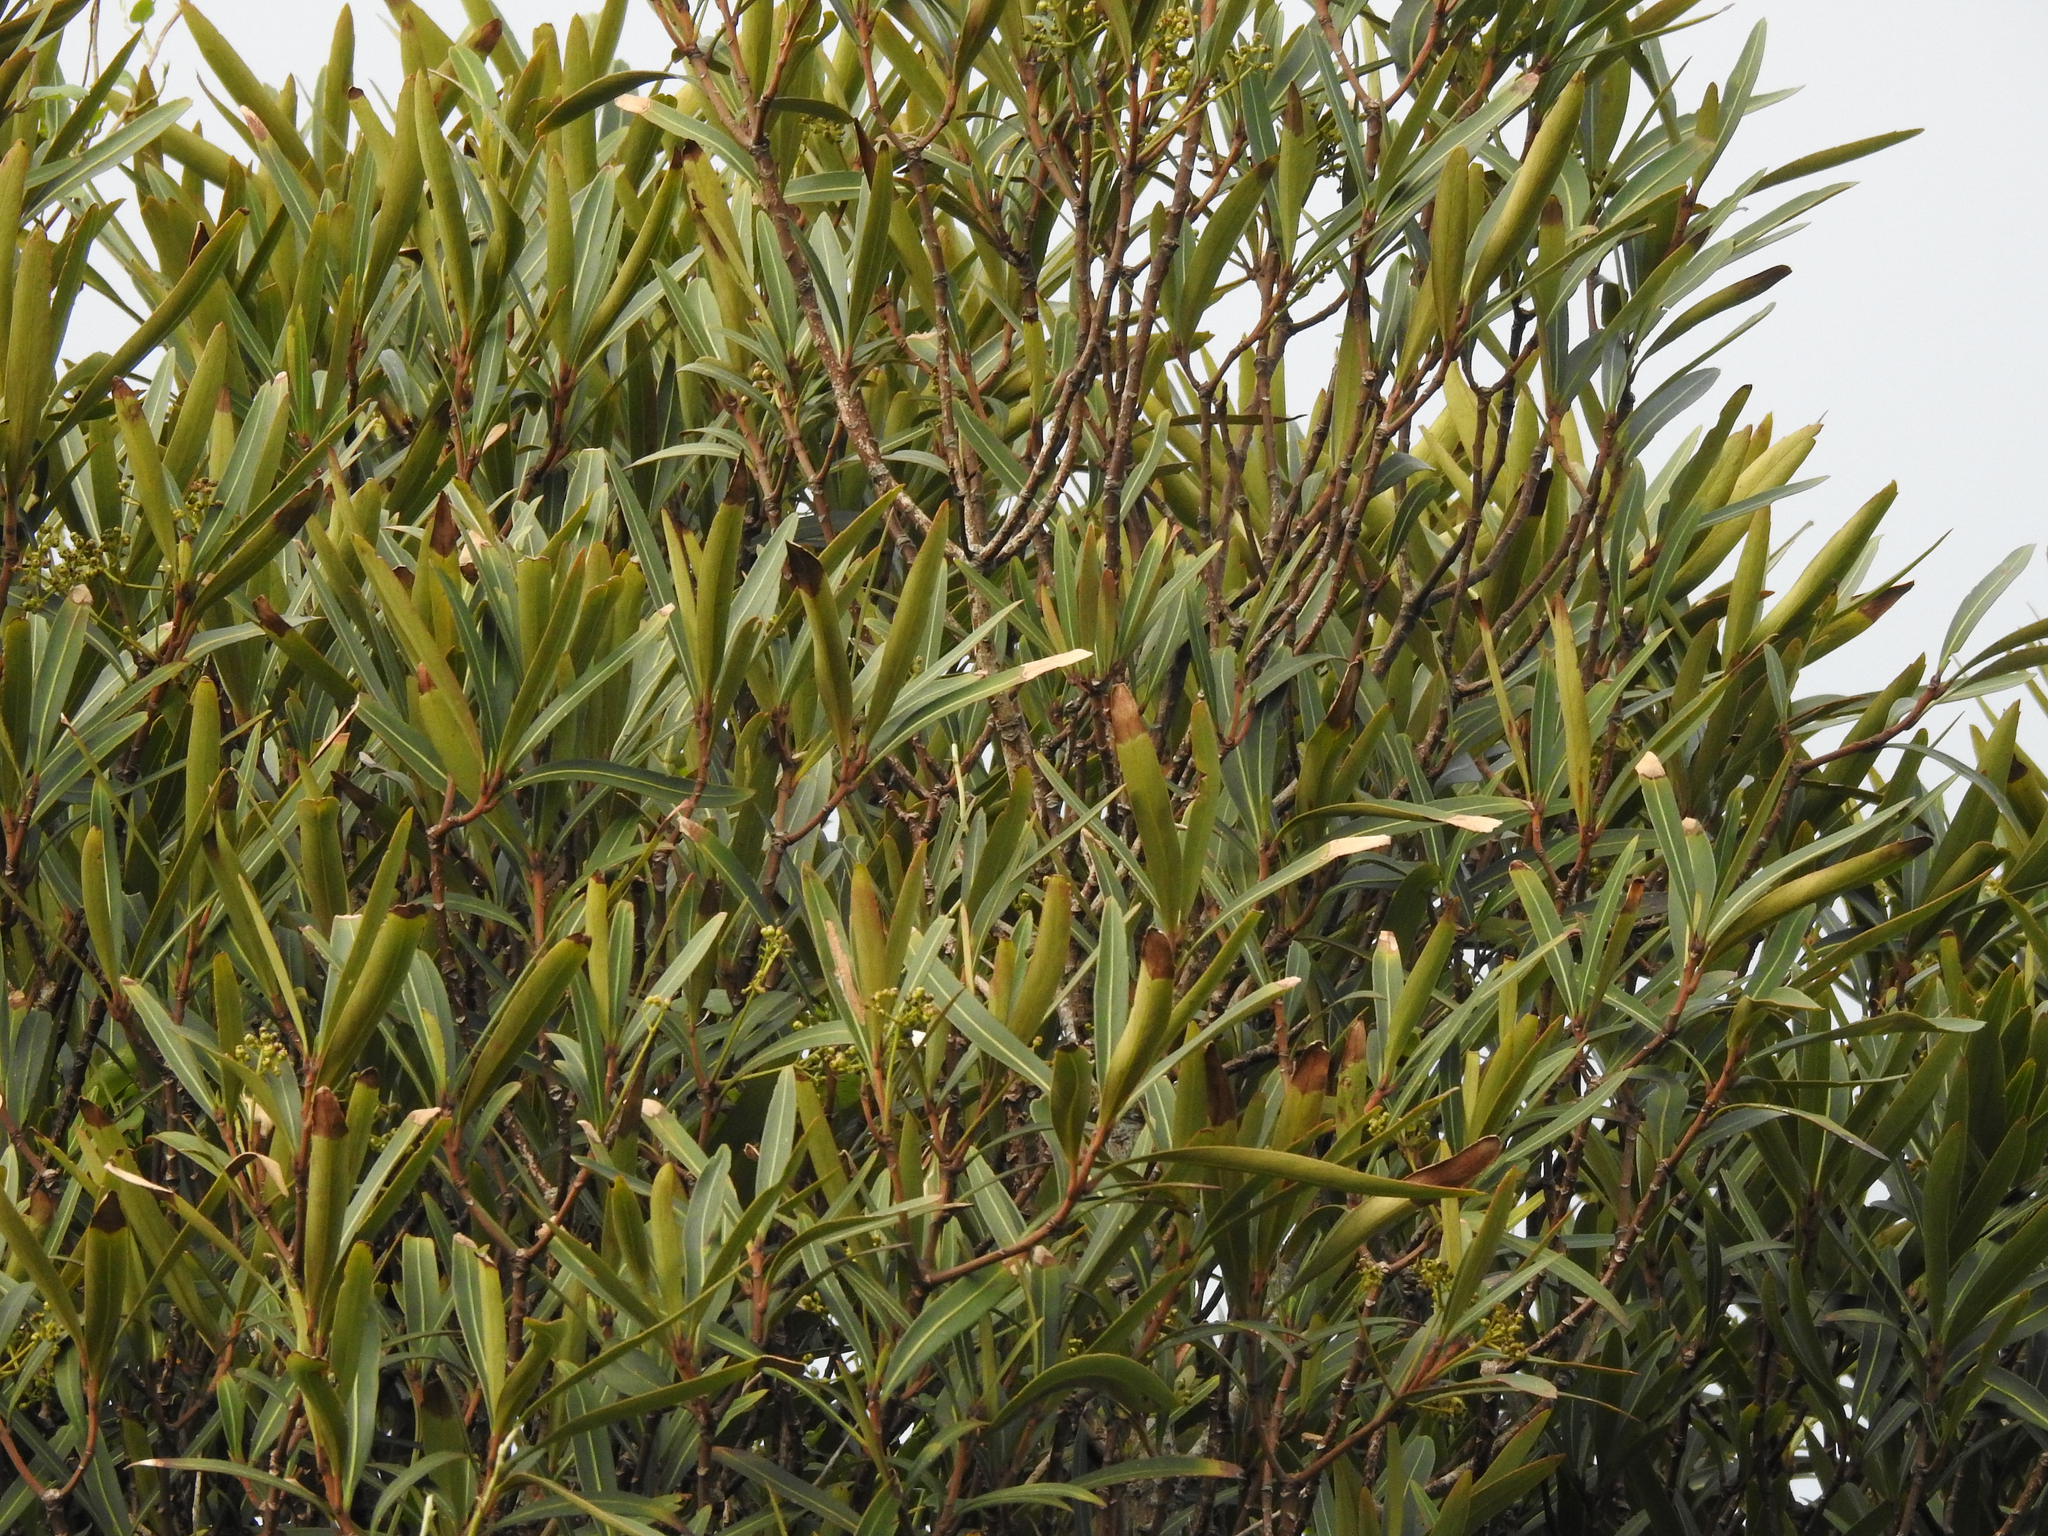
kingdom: Plantae
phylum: Tracheophyta
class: Magnoliopsida
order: Apiales
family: Araliaceae
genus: Pseudopanax
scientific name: Pseudopanax crassifolius
